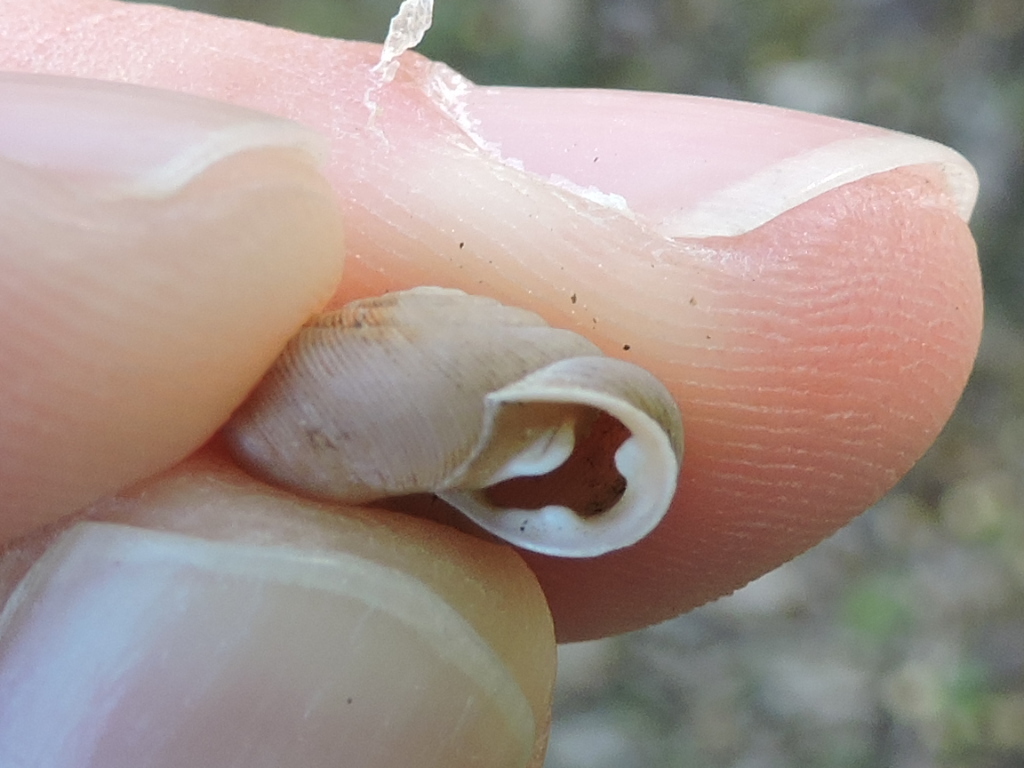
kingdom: Animalia
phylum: Mollusca
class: Gastropoda
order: Stylommatophora
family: Polygyridae
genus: Triodopsis
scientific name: Triodopsis vultuosa
